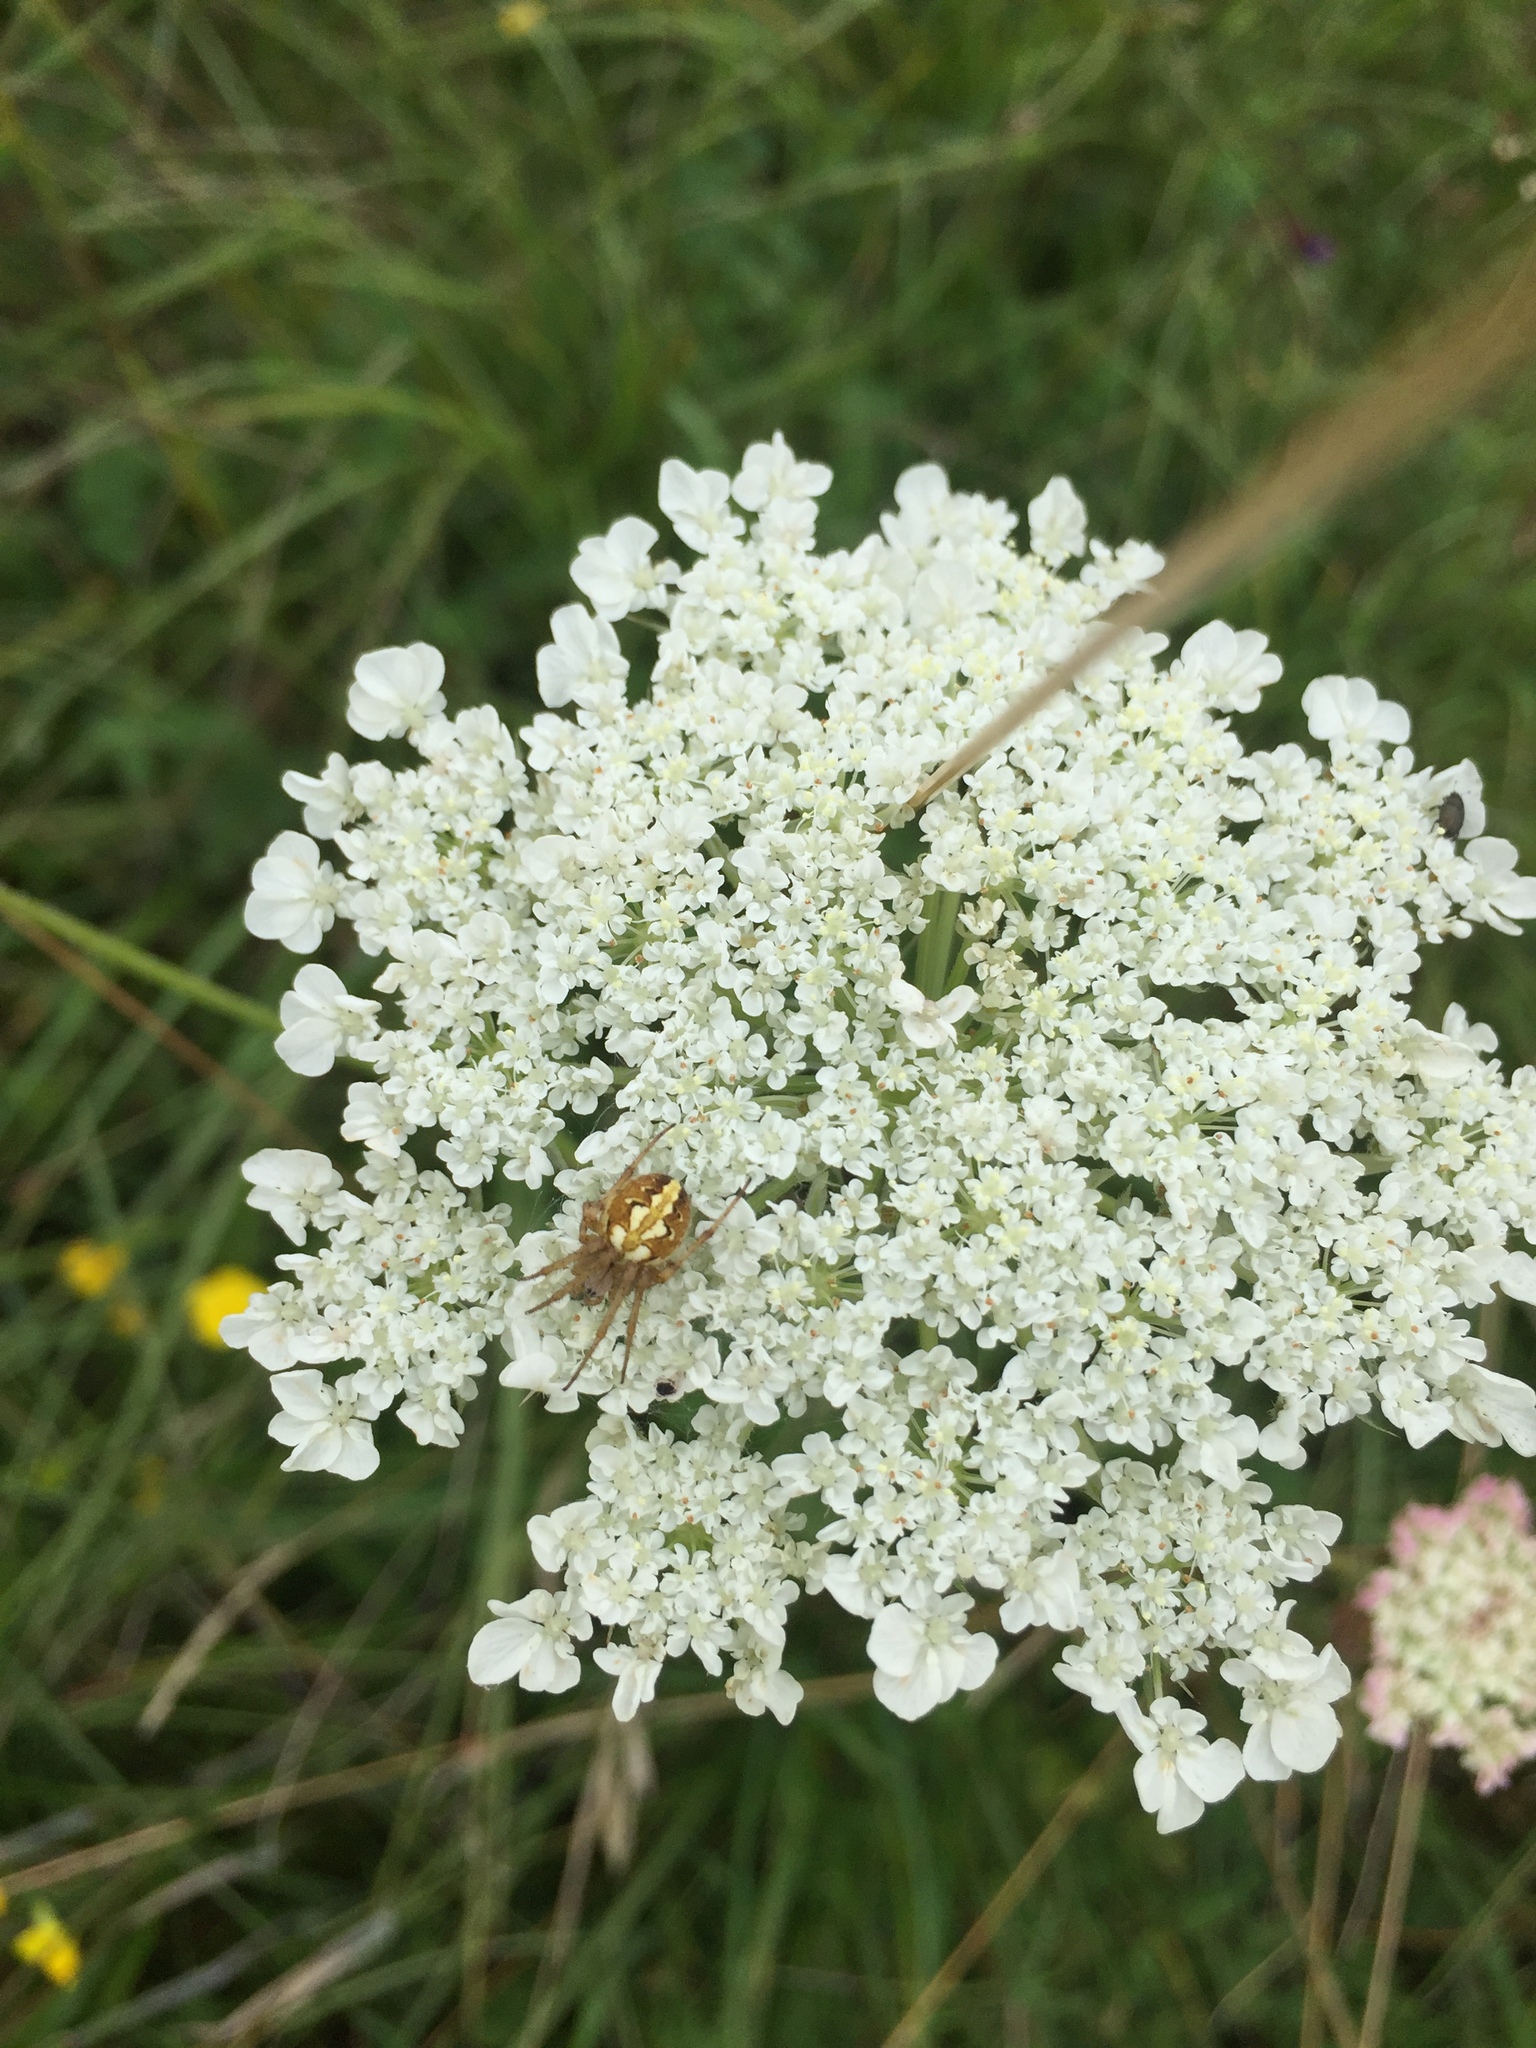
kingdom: Animalia
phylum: Arthropoda
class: Arachnida
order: Araneae
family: Araneidae
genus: Neoscona
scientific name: Neoscona adianta
